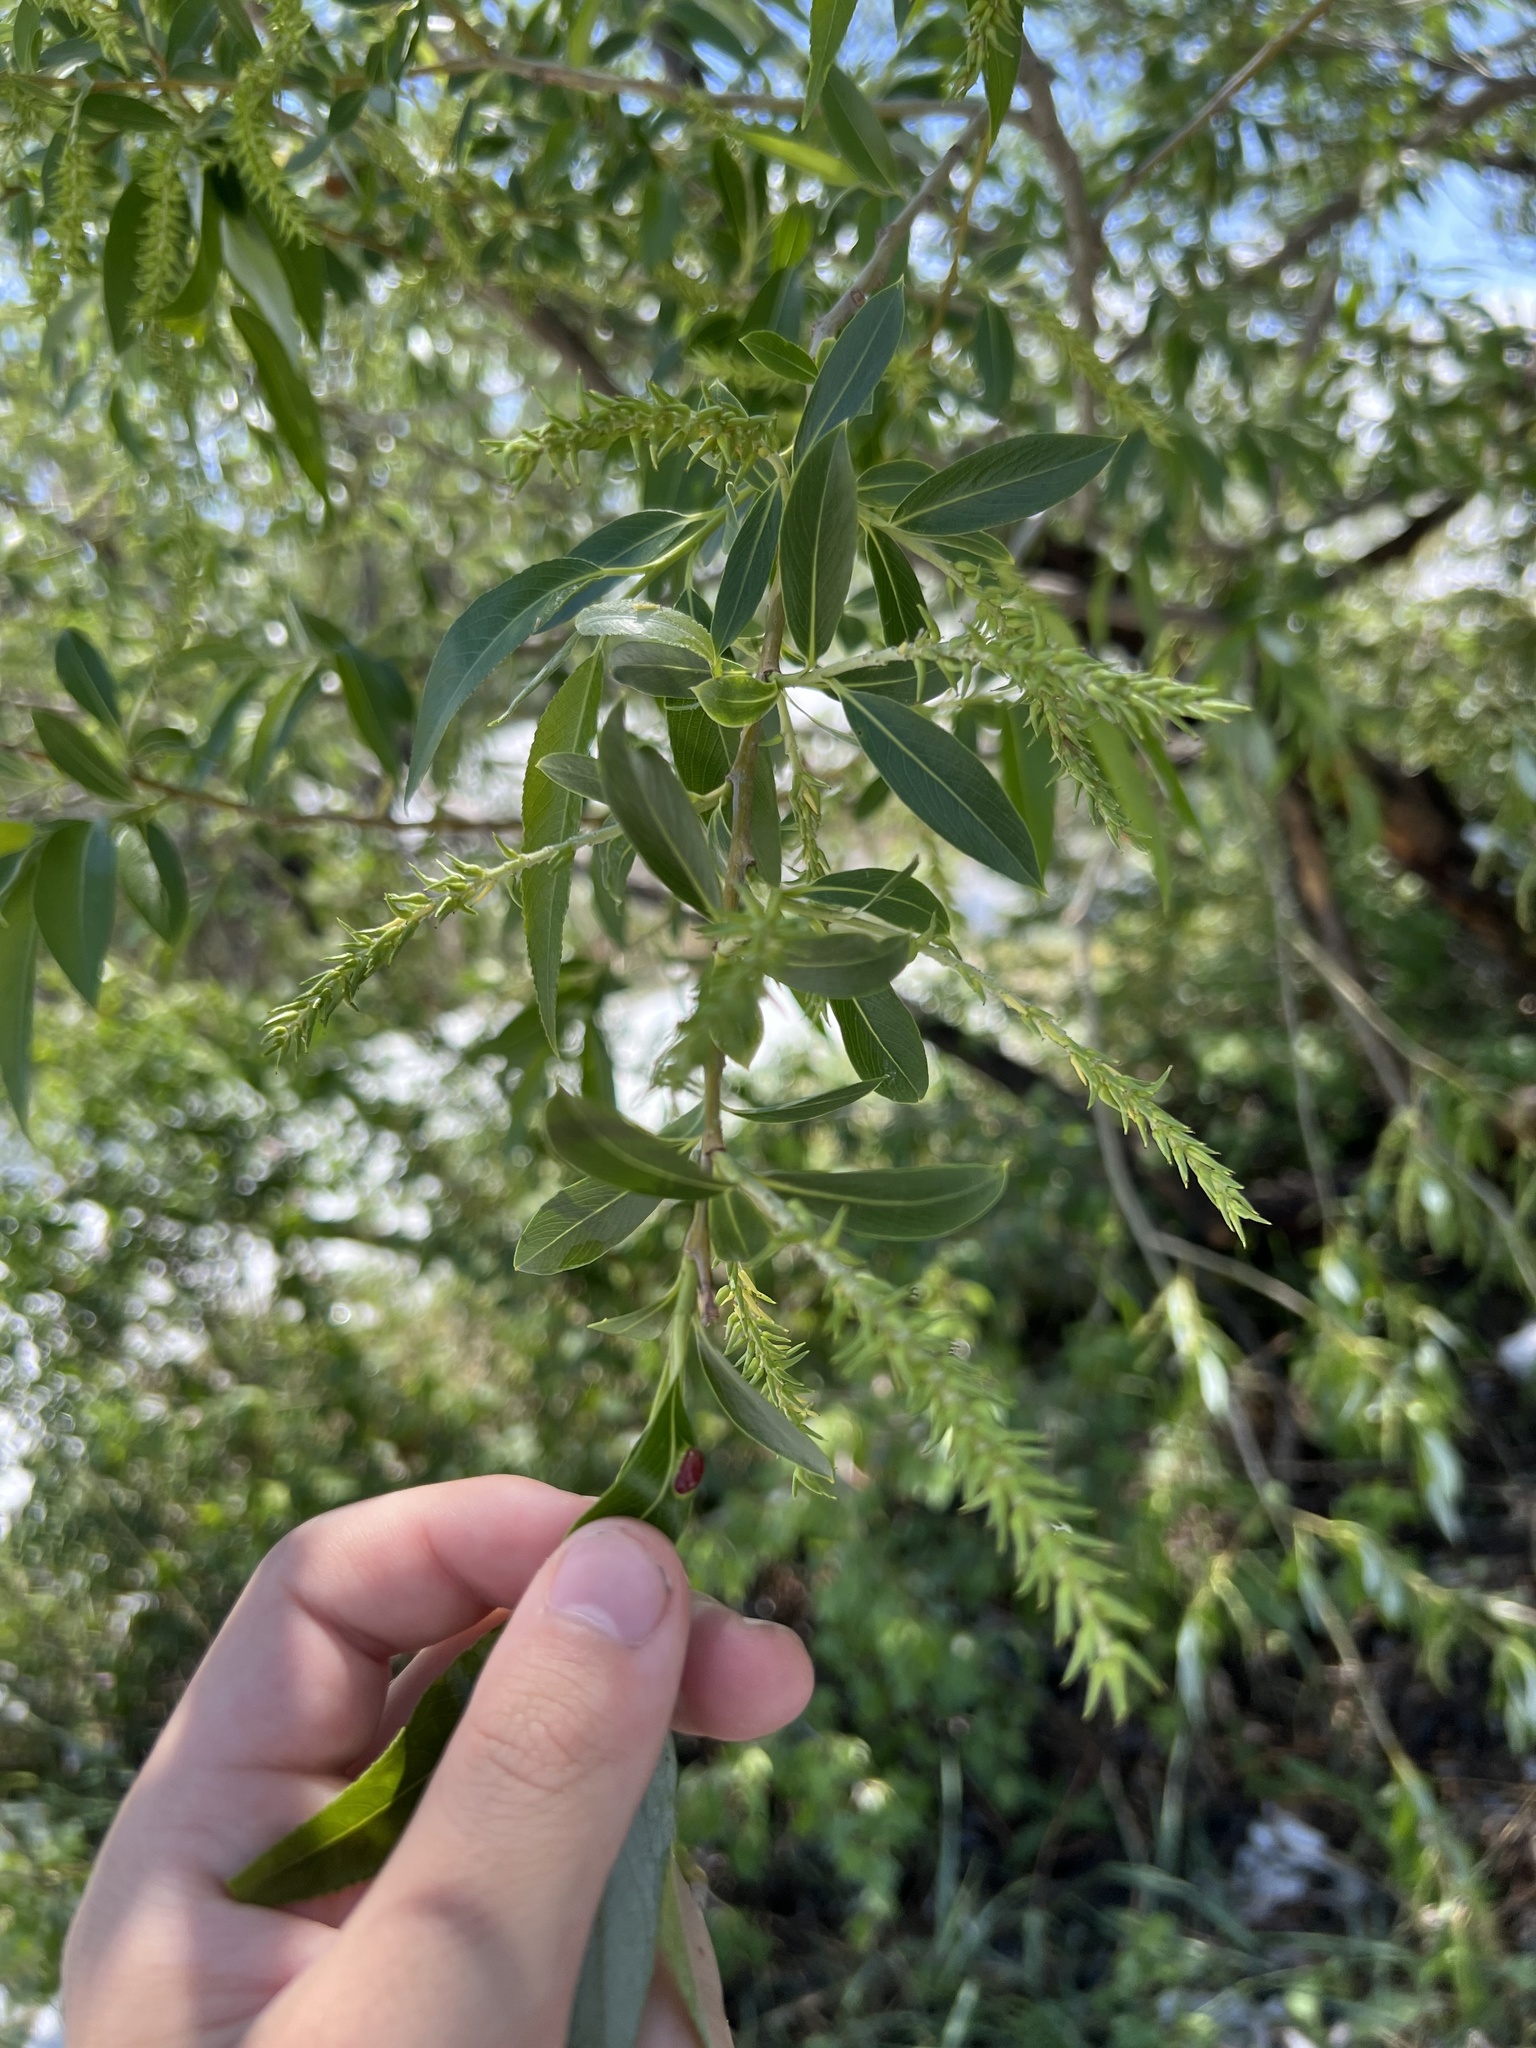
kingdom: Plantae
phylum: Tracheophyta
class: Magnoliopsida
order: Malpighiales
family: Salicaceae
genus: Salix
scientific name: Salix amygdaloides
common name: Peach leaf willow
